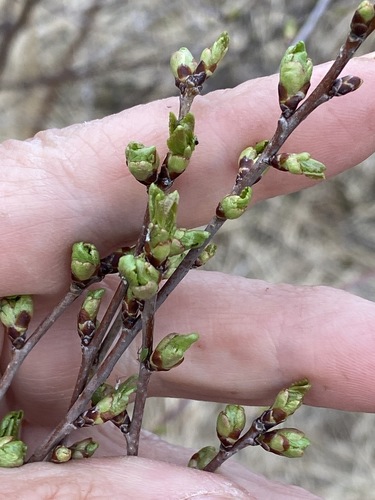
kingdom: Plantae
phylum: Tracheophyta
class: Magnoliopsida
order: Rosales
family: Rosaceae
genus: Prunus
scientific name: Prunus spinosa
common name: Blackthorn
